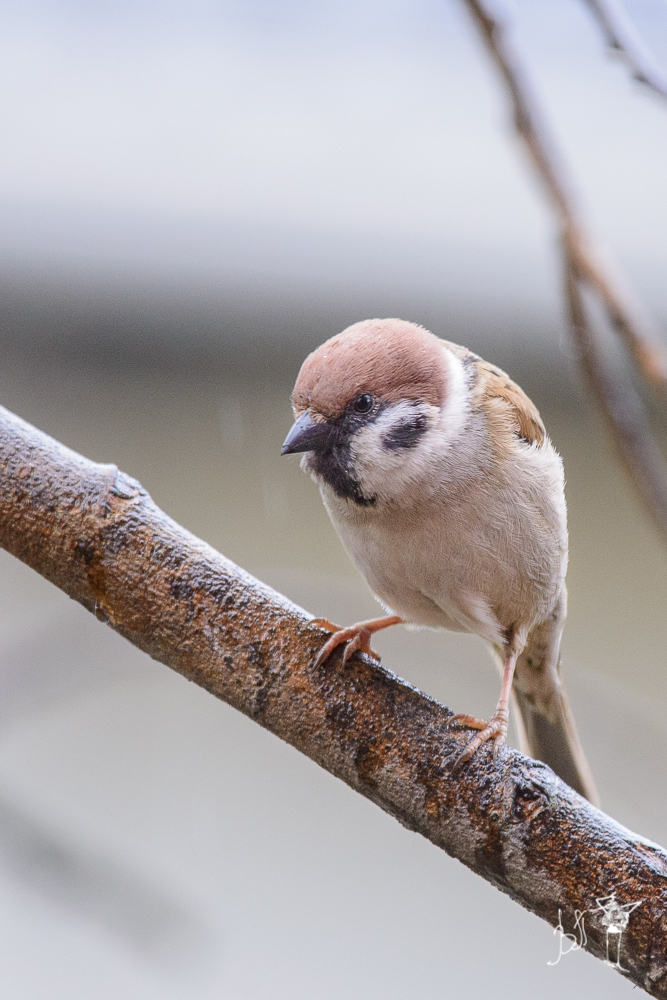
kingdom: Animalia
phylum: Chordata
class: Aves
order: Passeriformes
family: Passeridae
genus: Passer
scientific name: Passer montanus
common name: Eurasian tree sparrow
